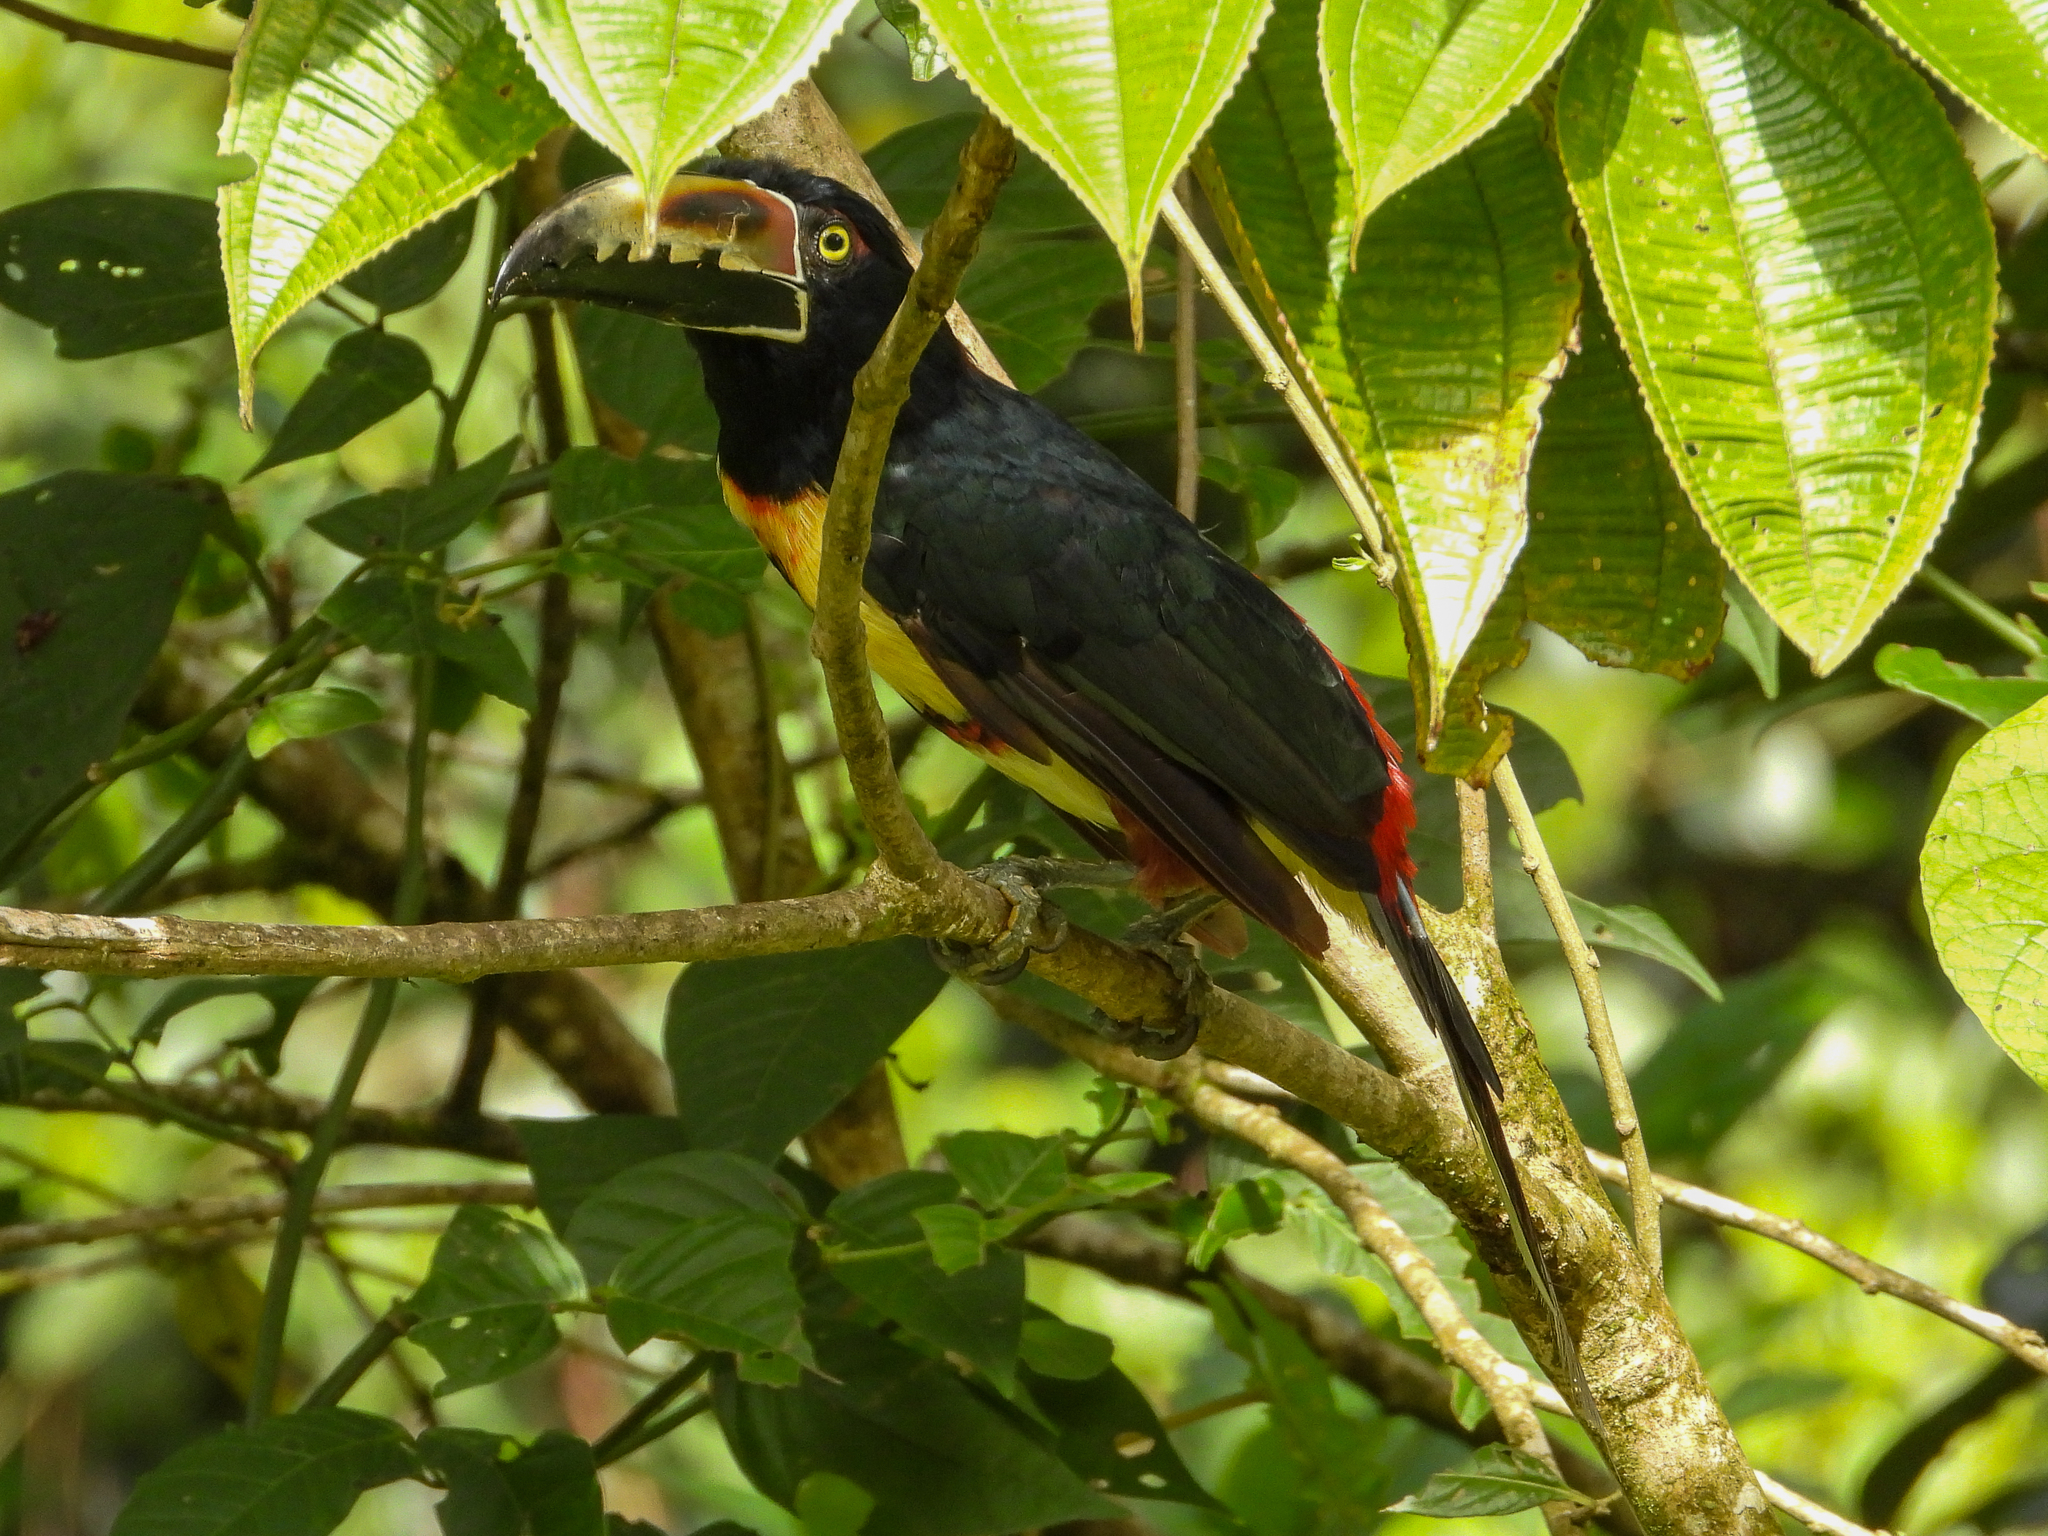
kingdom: Animalia
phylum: Chordata
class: Aves
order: Piciformes
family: Ramphastidae
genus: Pteroglossus
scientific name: Pteroglossus torquatus
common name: Collared aracari
